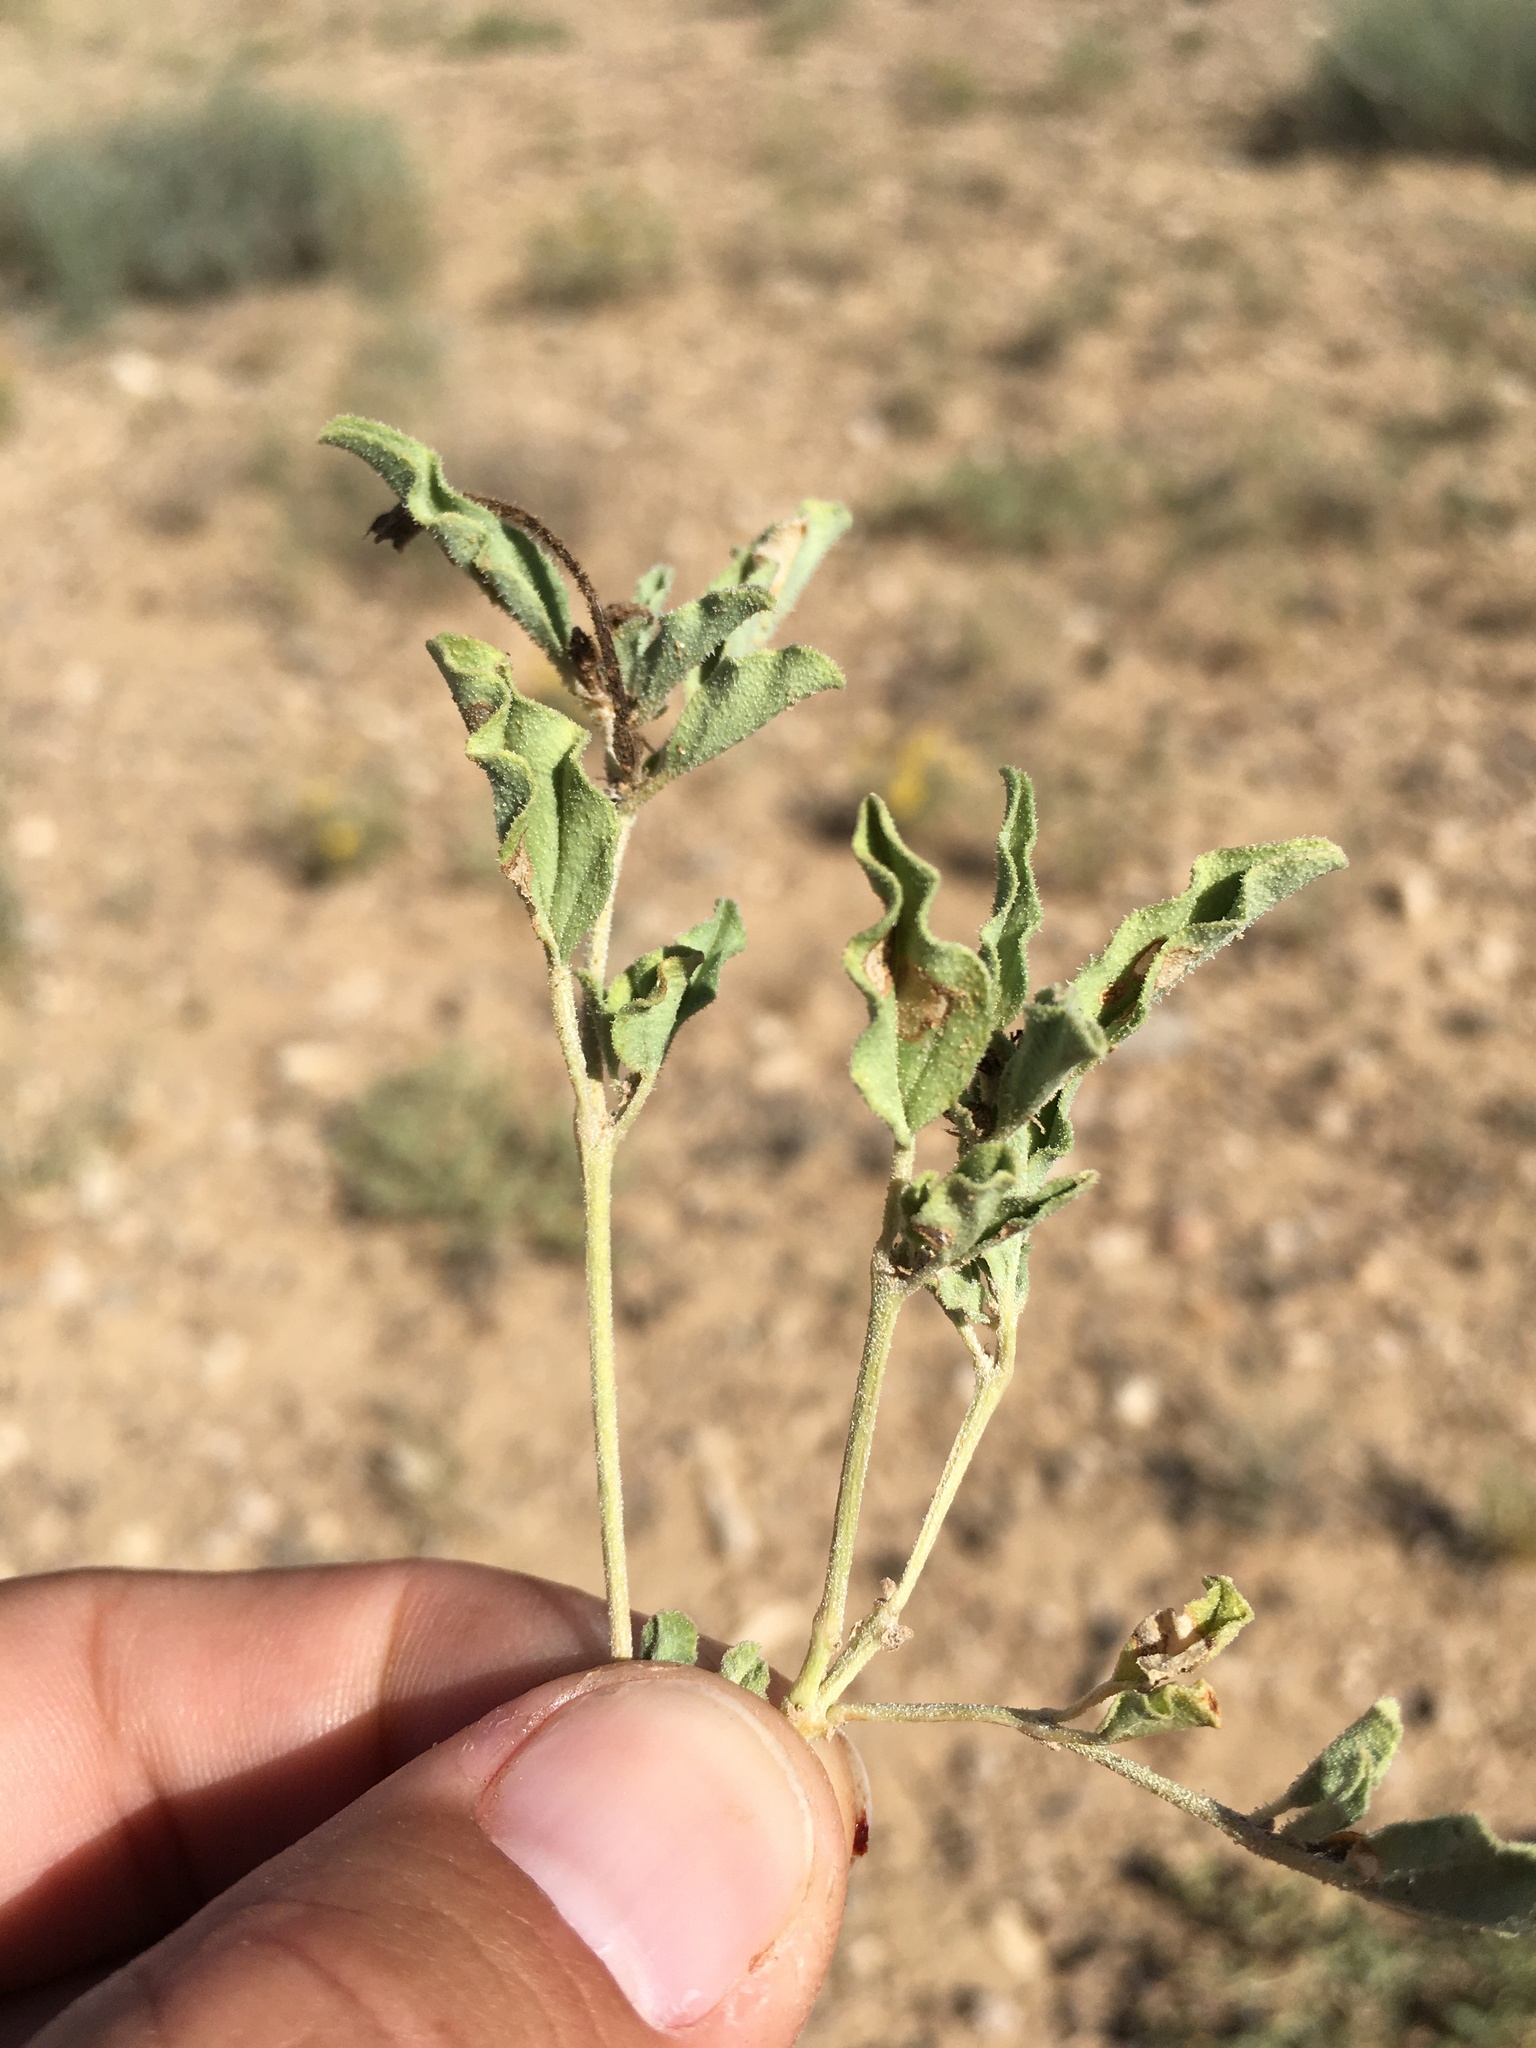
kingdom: Plantae
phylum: Tracheophyta
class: Magnoliopsida
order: Caryophyllales
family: Nyctaginaceae
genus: Acleisanthes
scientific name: Acleisanthes diffusa
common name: Spreading moonpod
